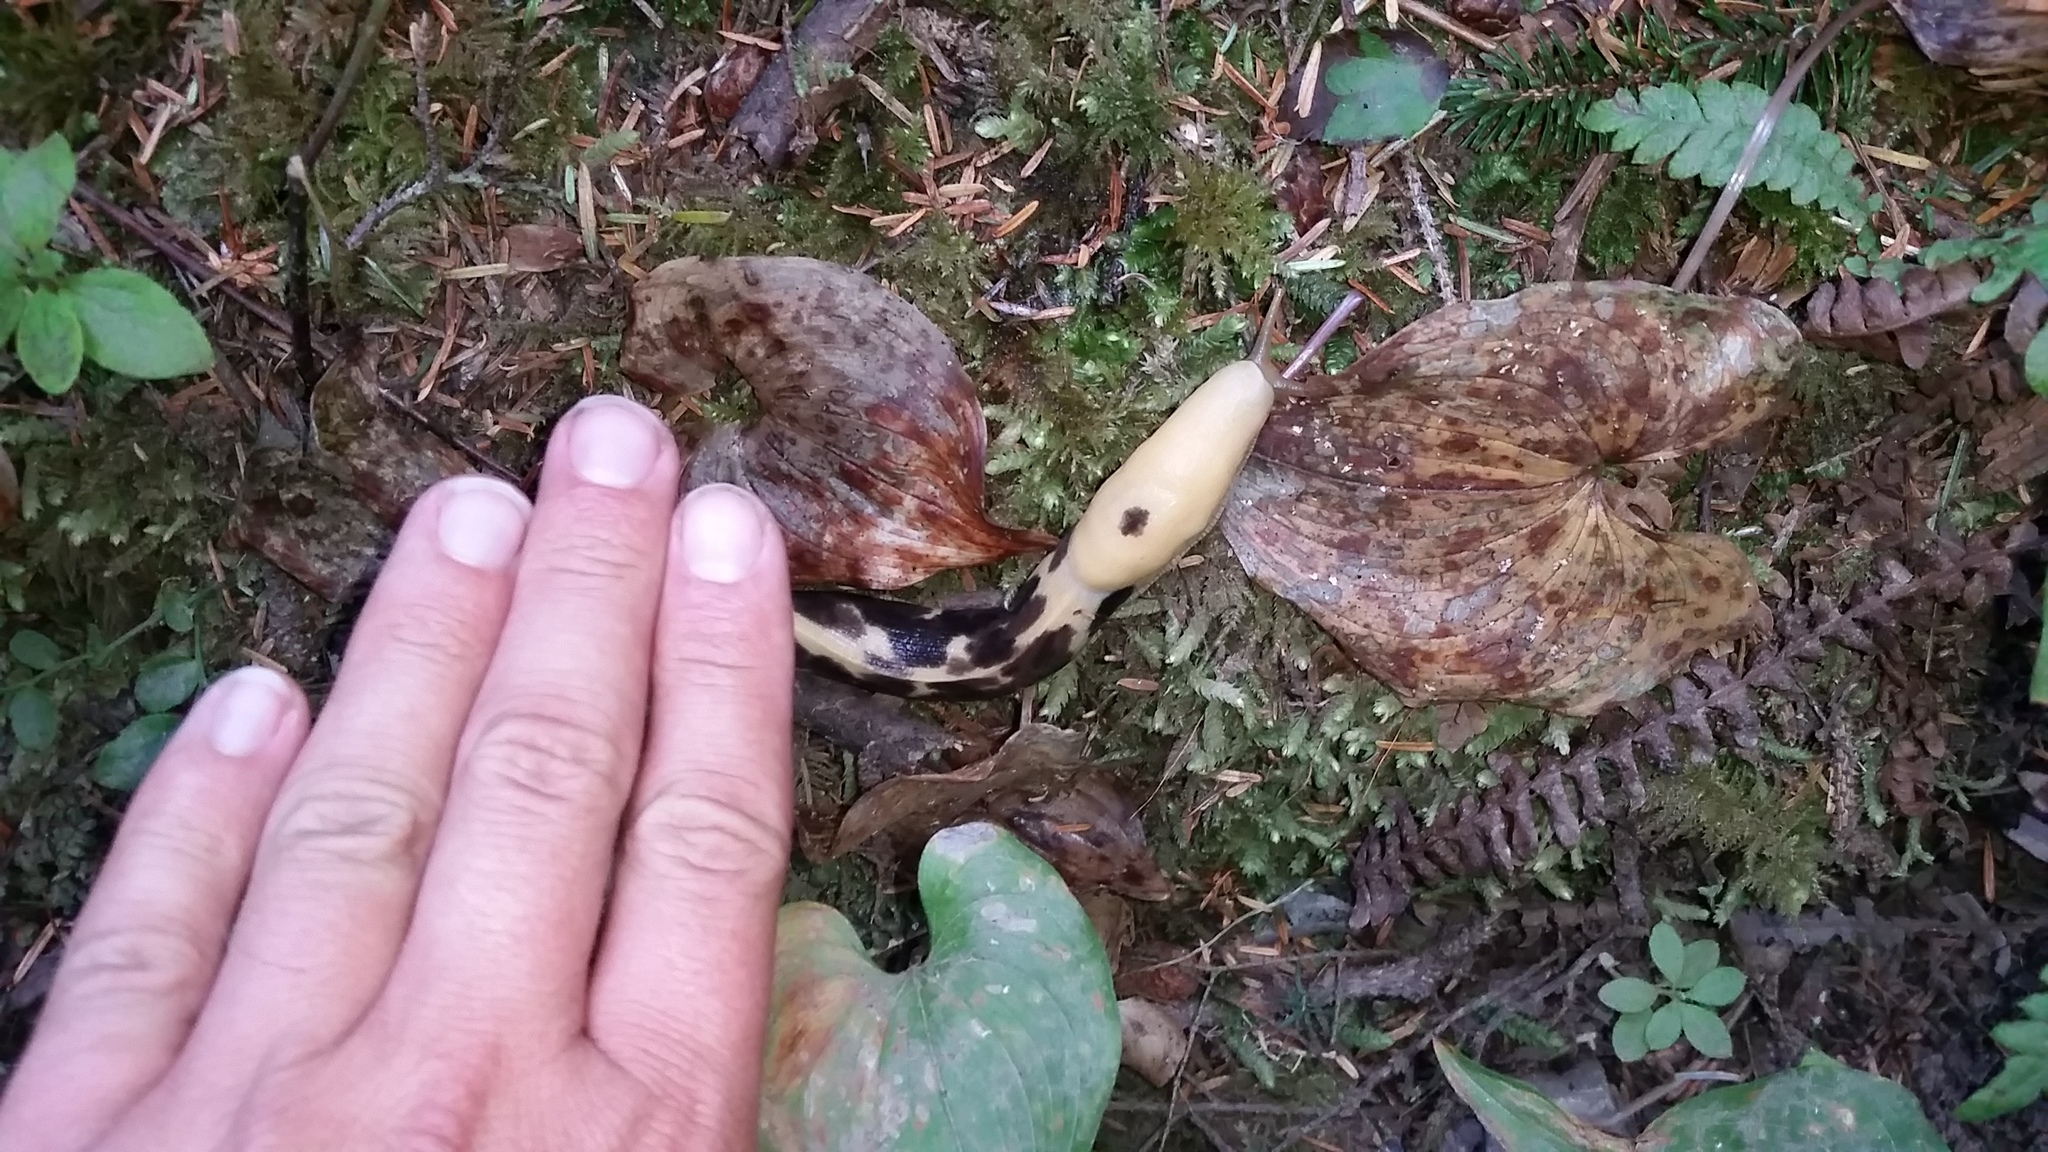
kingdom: Animalia
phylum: Mollusca
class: Gastropoda
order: Stylommatophora
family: Ariolimacidae
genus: Ariolimax
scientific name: Ariolimax columbianus
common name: Pacific banana slug
